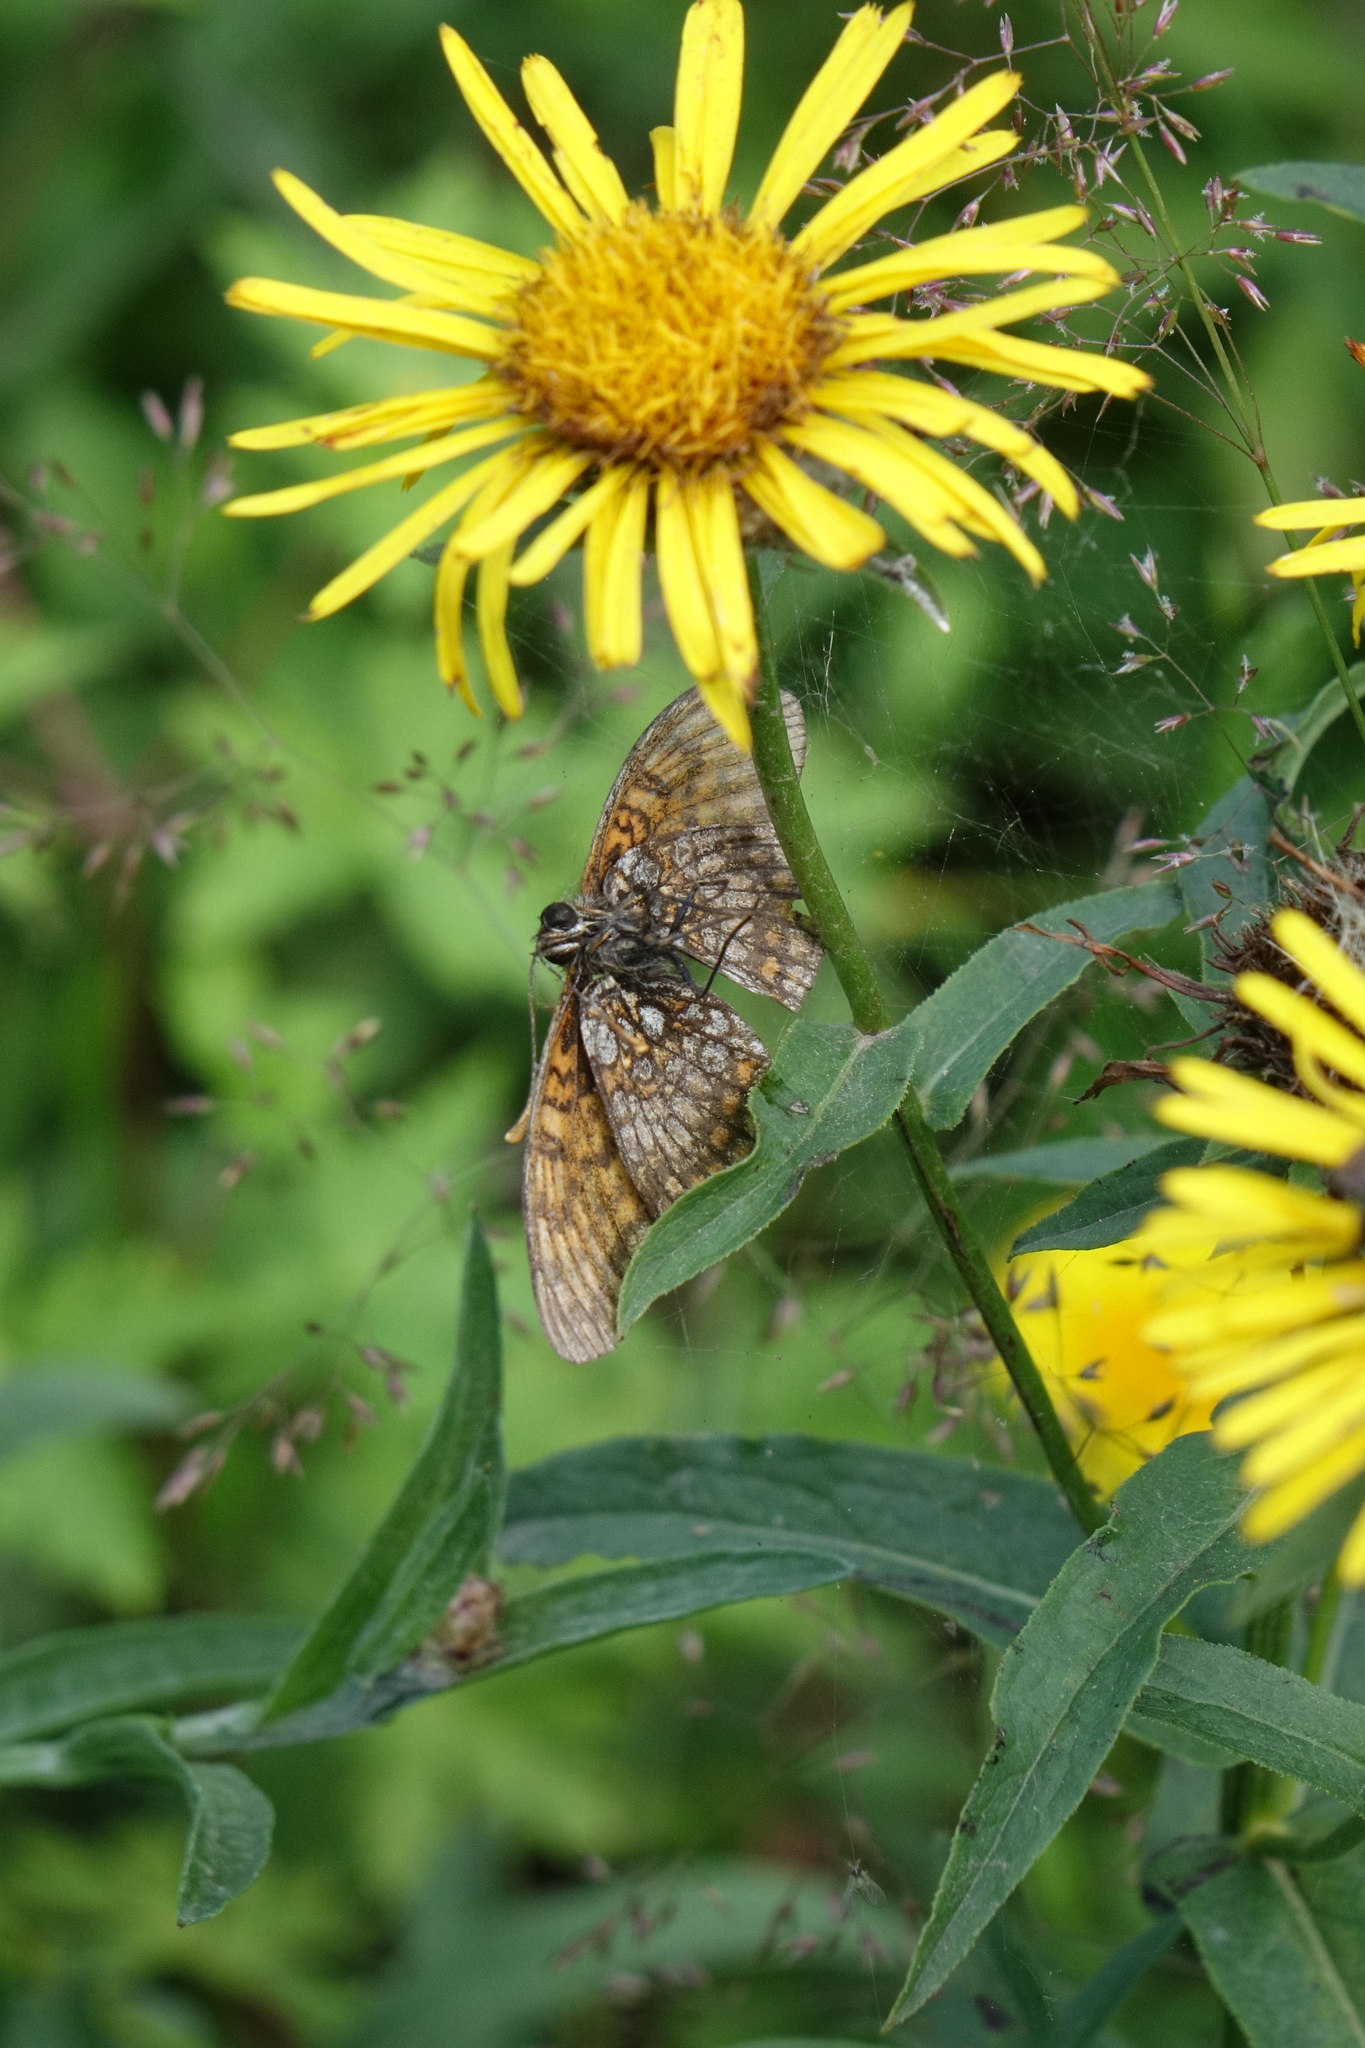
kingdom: Plantae
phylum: Tracheophyta
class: Magnoliopsida
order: Asterales
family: Asteraceae
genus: Pentanema
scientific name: Pentanema salicinum
